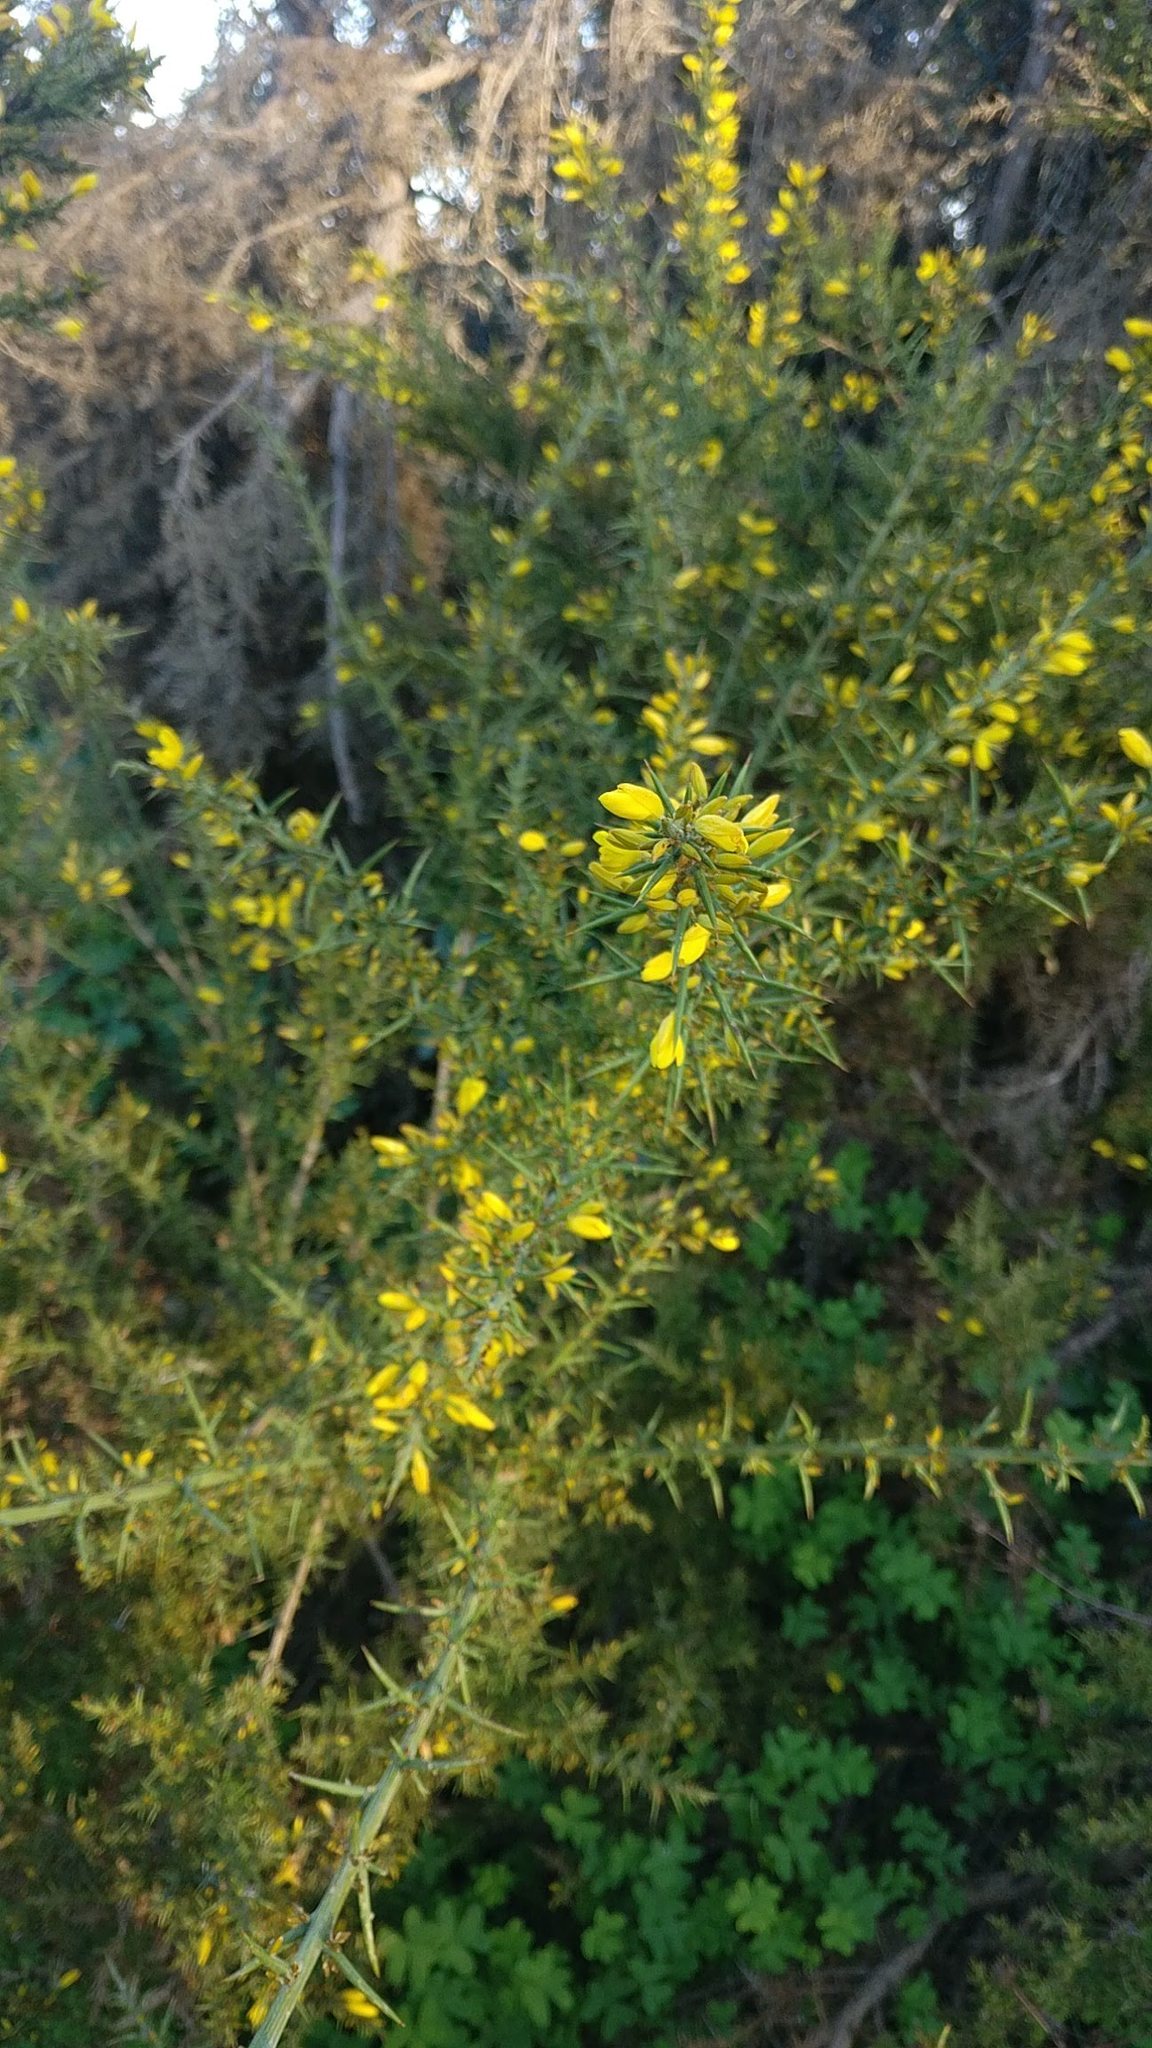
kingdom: Plantae
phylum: Tracheophyta
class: Magnoliopsida
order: Fabales
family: Fabaceae
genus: Ulex
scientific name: Ulex australis
